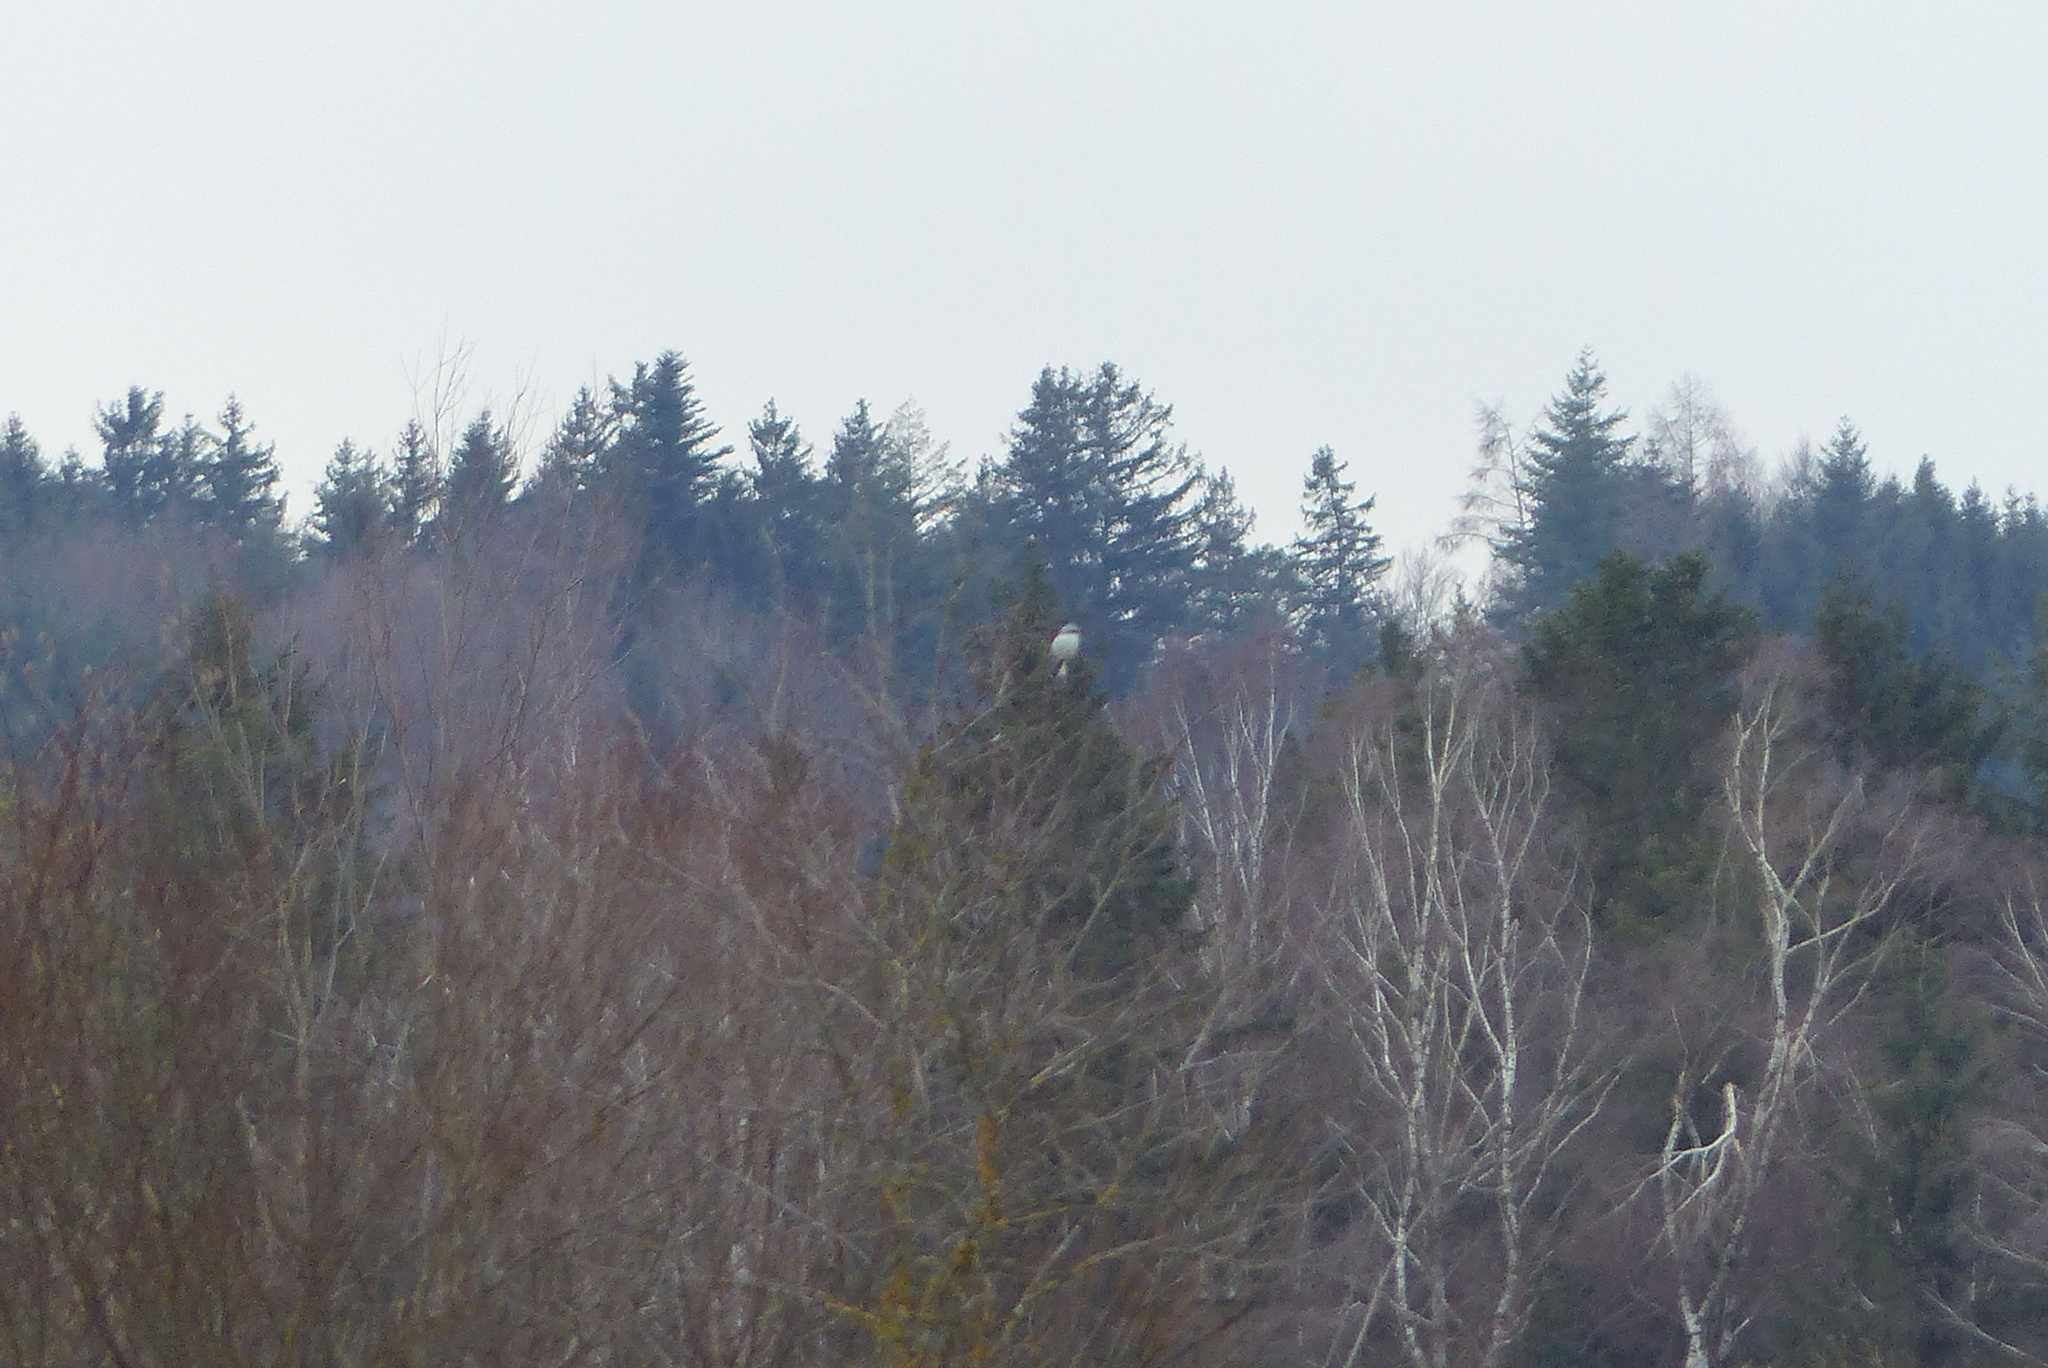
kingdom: Animalia
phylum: Chordata
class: Aves
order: Passeriformes
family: Laniidae
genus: Lanius
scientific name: Lanius excubitor
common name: Great grey shrike
